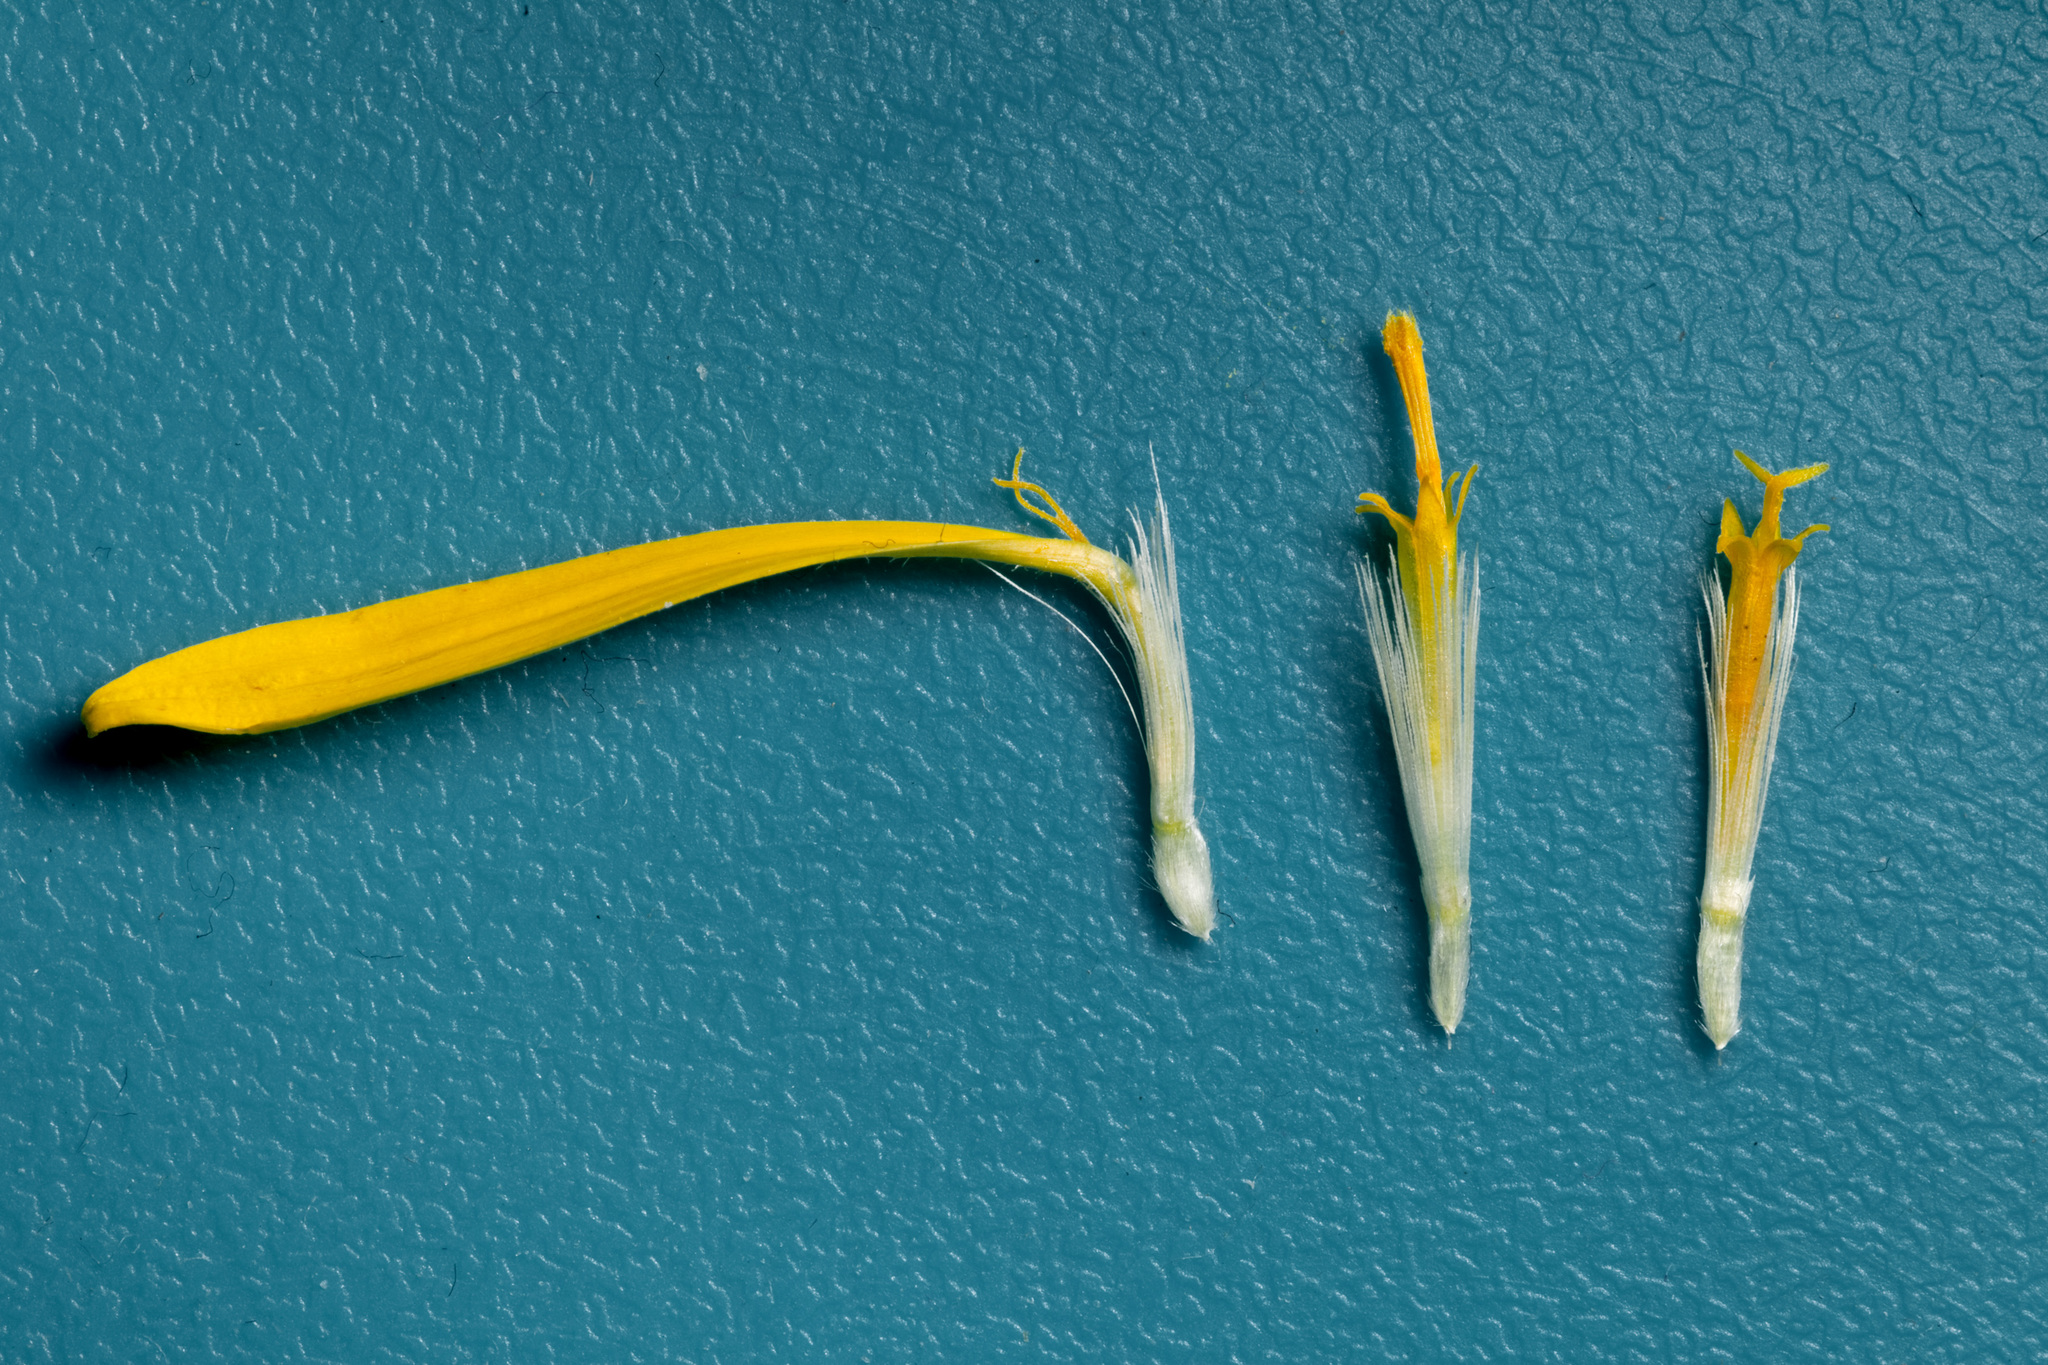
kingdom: Plantae
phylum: Tracheophyta
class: Magnoliopsida
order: Asterales
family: Asteraceae
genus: Heterotheca
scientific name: Heterotheca zionensis
